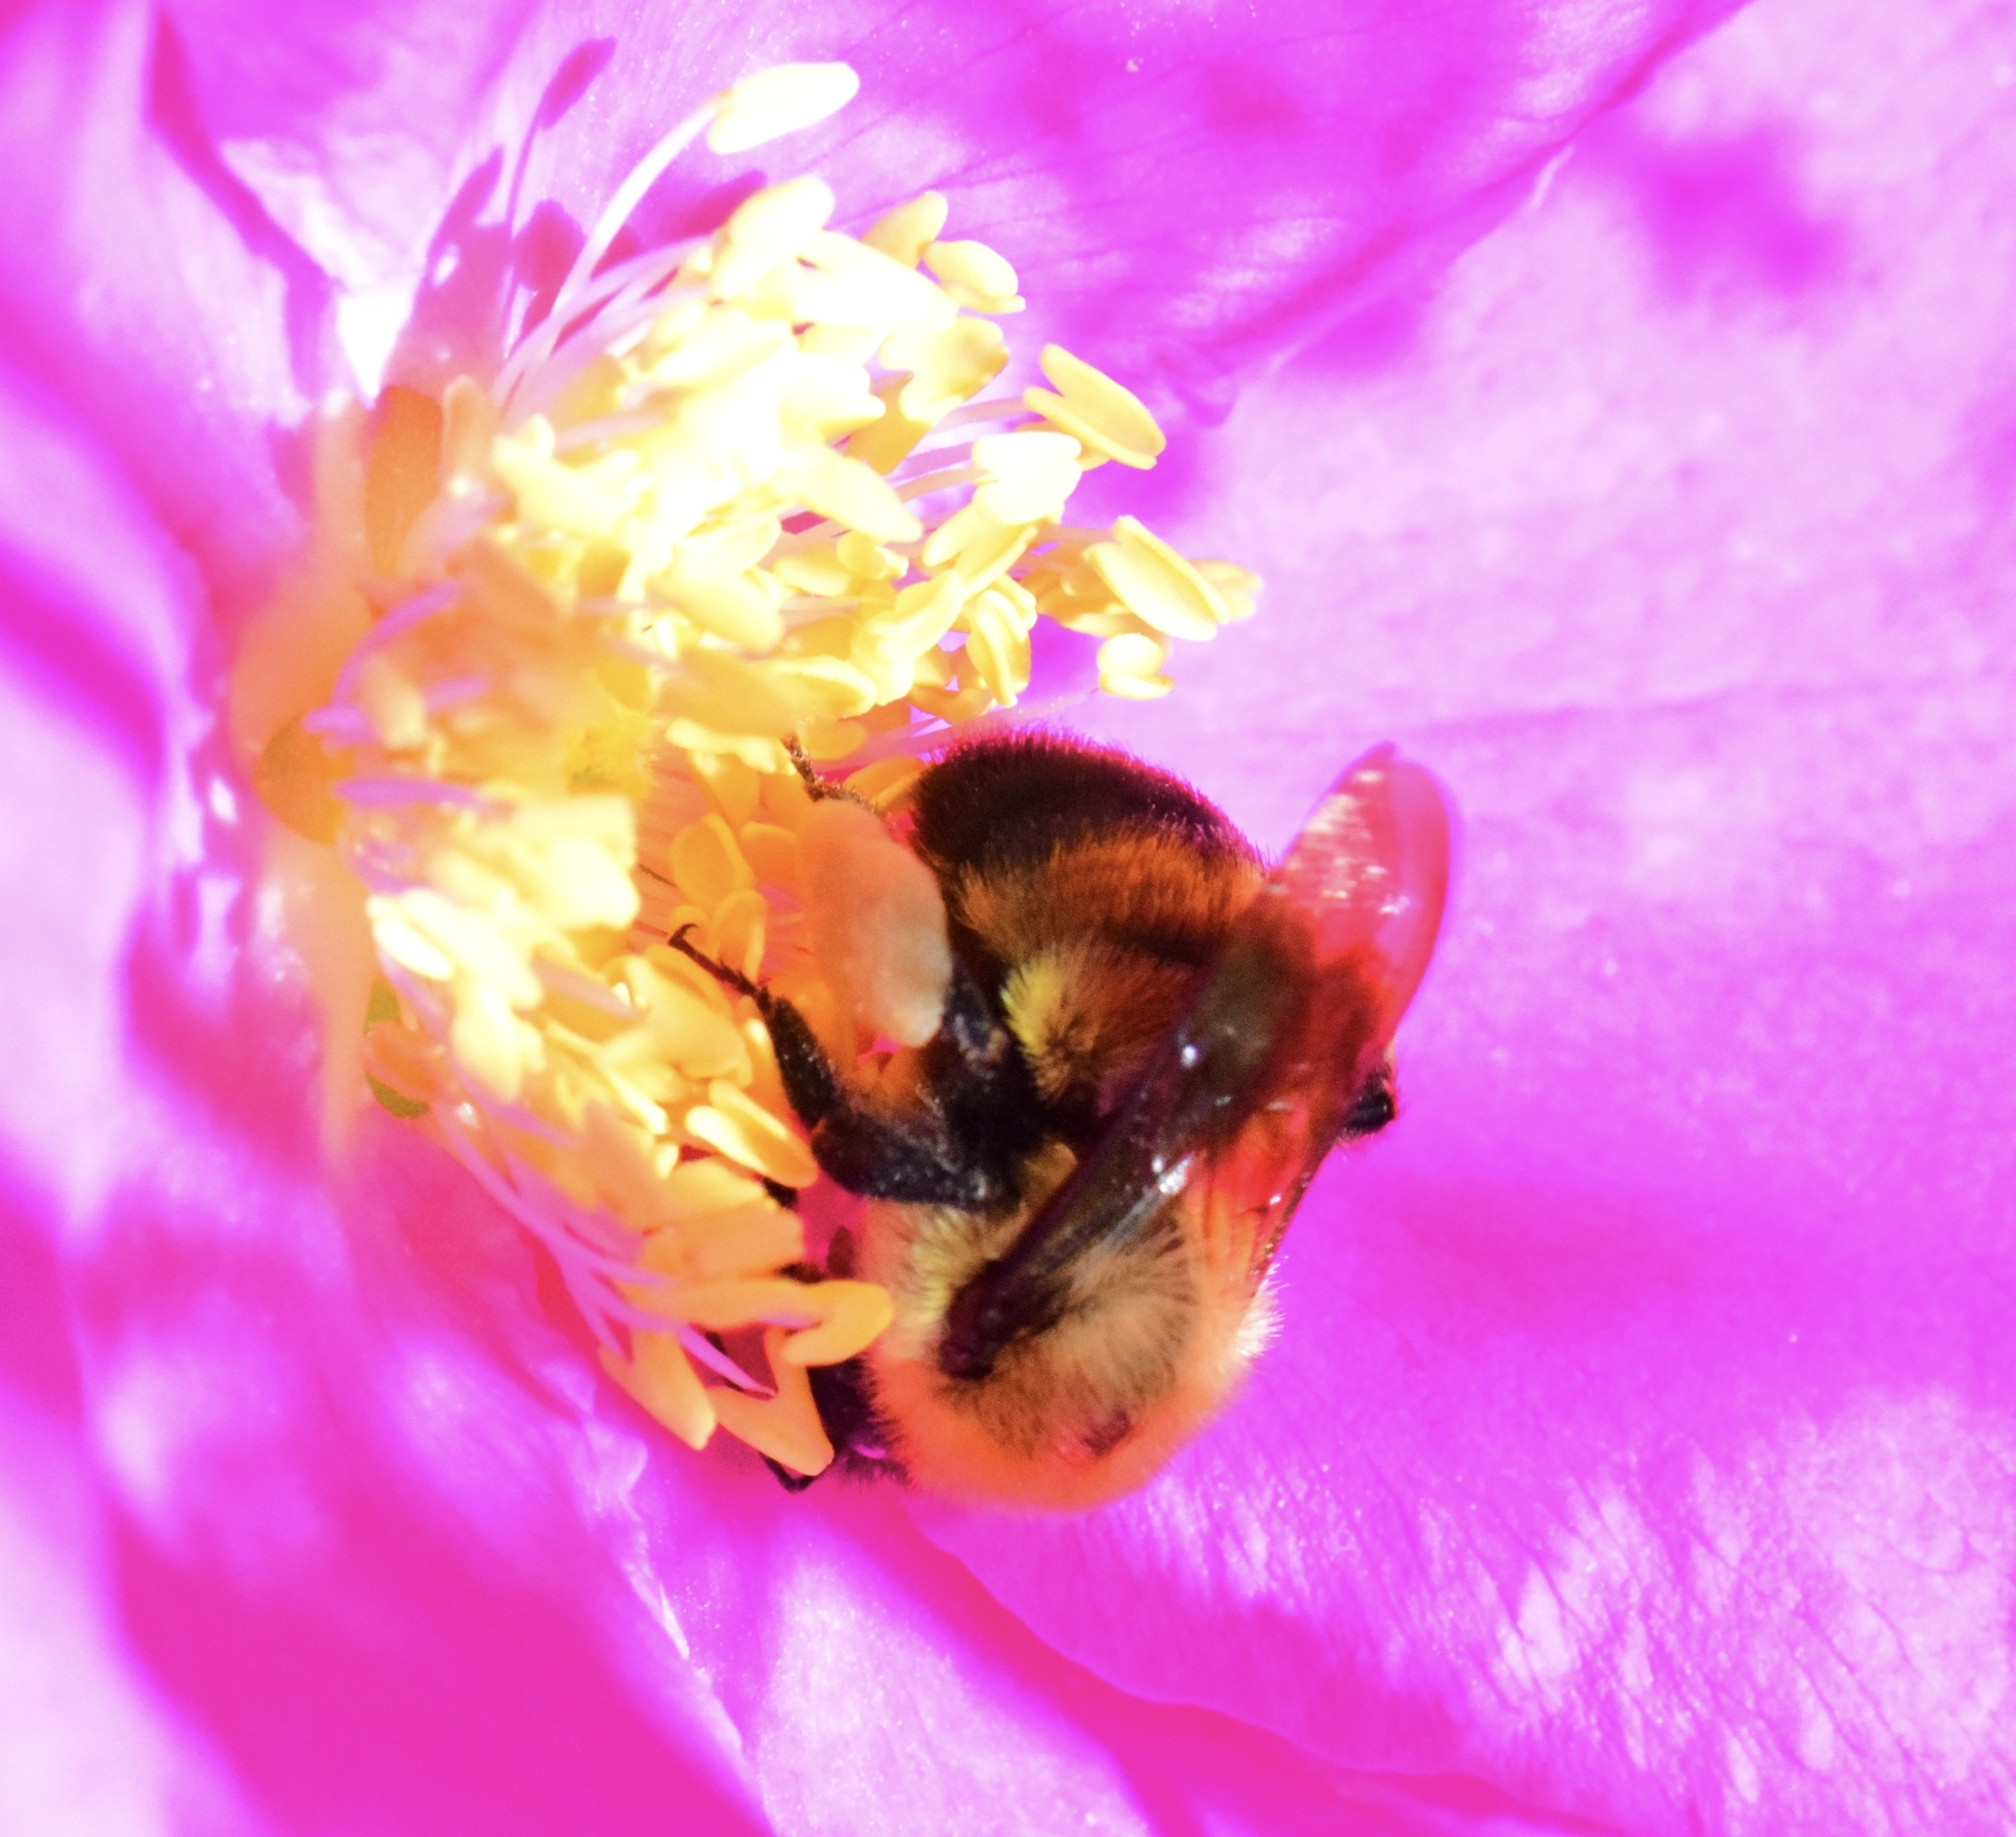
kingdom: Animalia
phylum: Arthropoda
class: Insecta
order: Hymenoptera
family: Apidae
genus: Bombus
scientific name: Bombus griseocollis
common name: Brown-belted bumble bee
